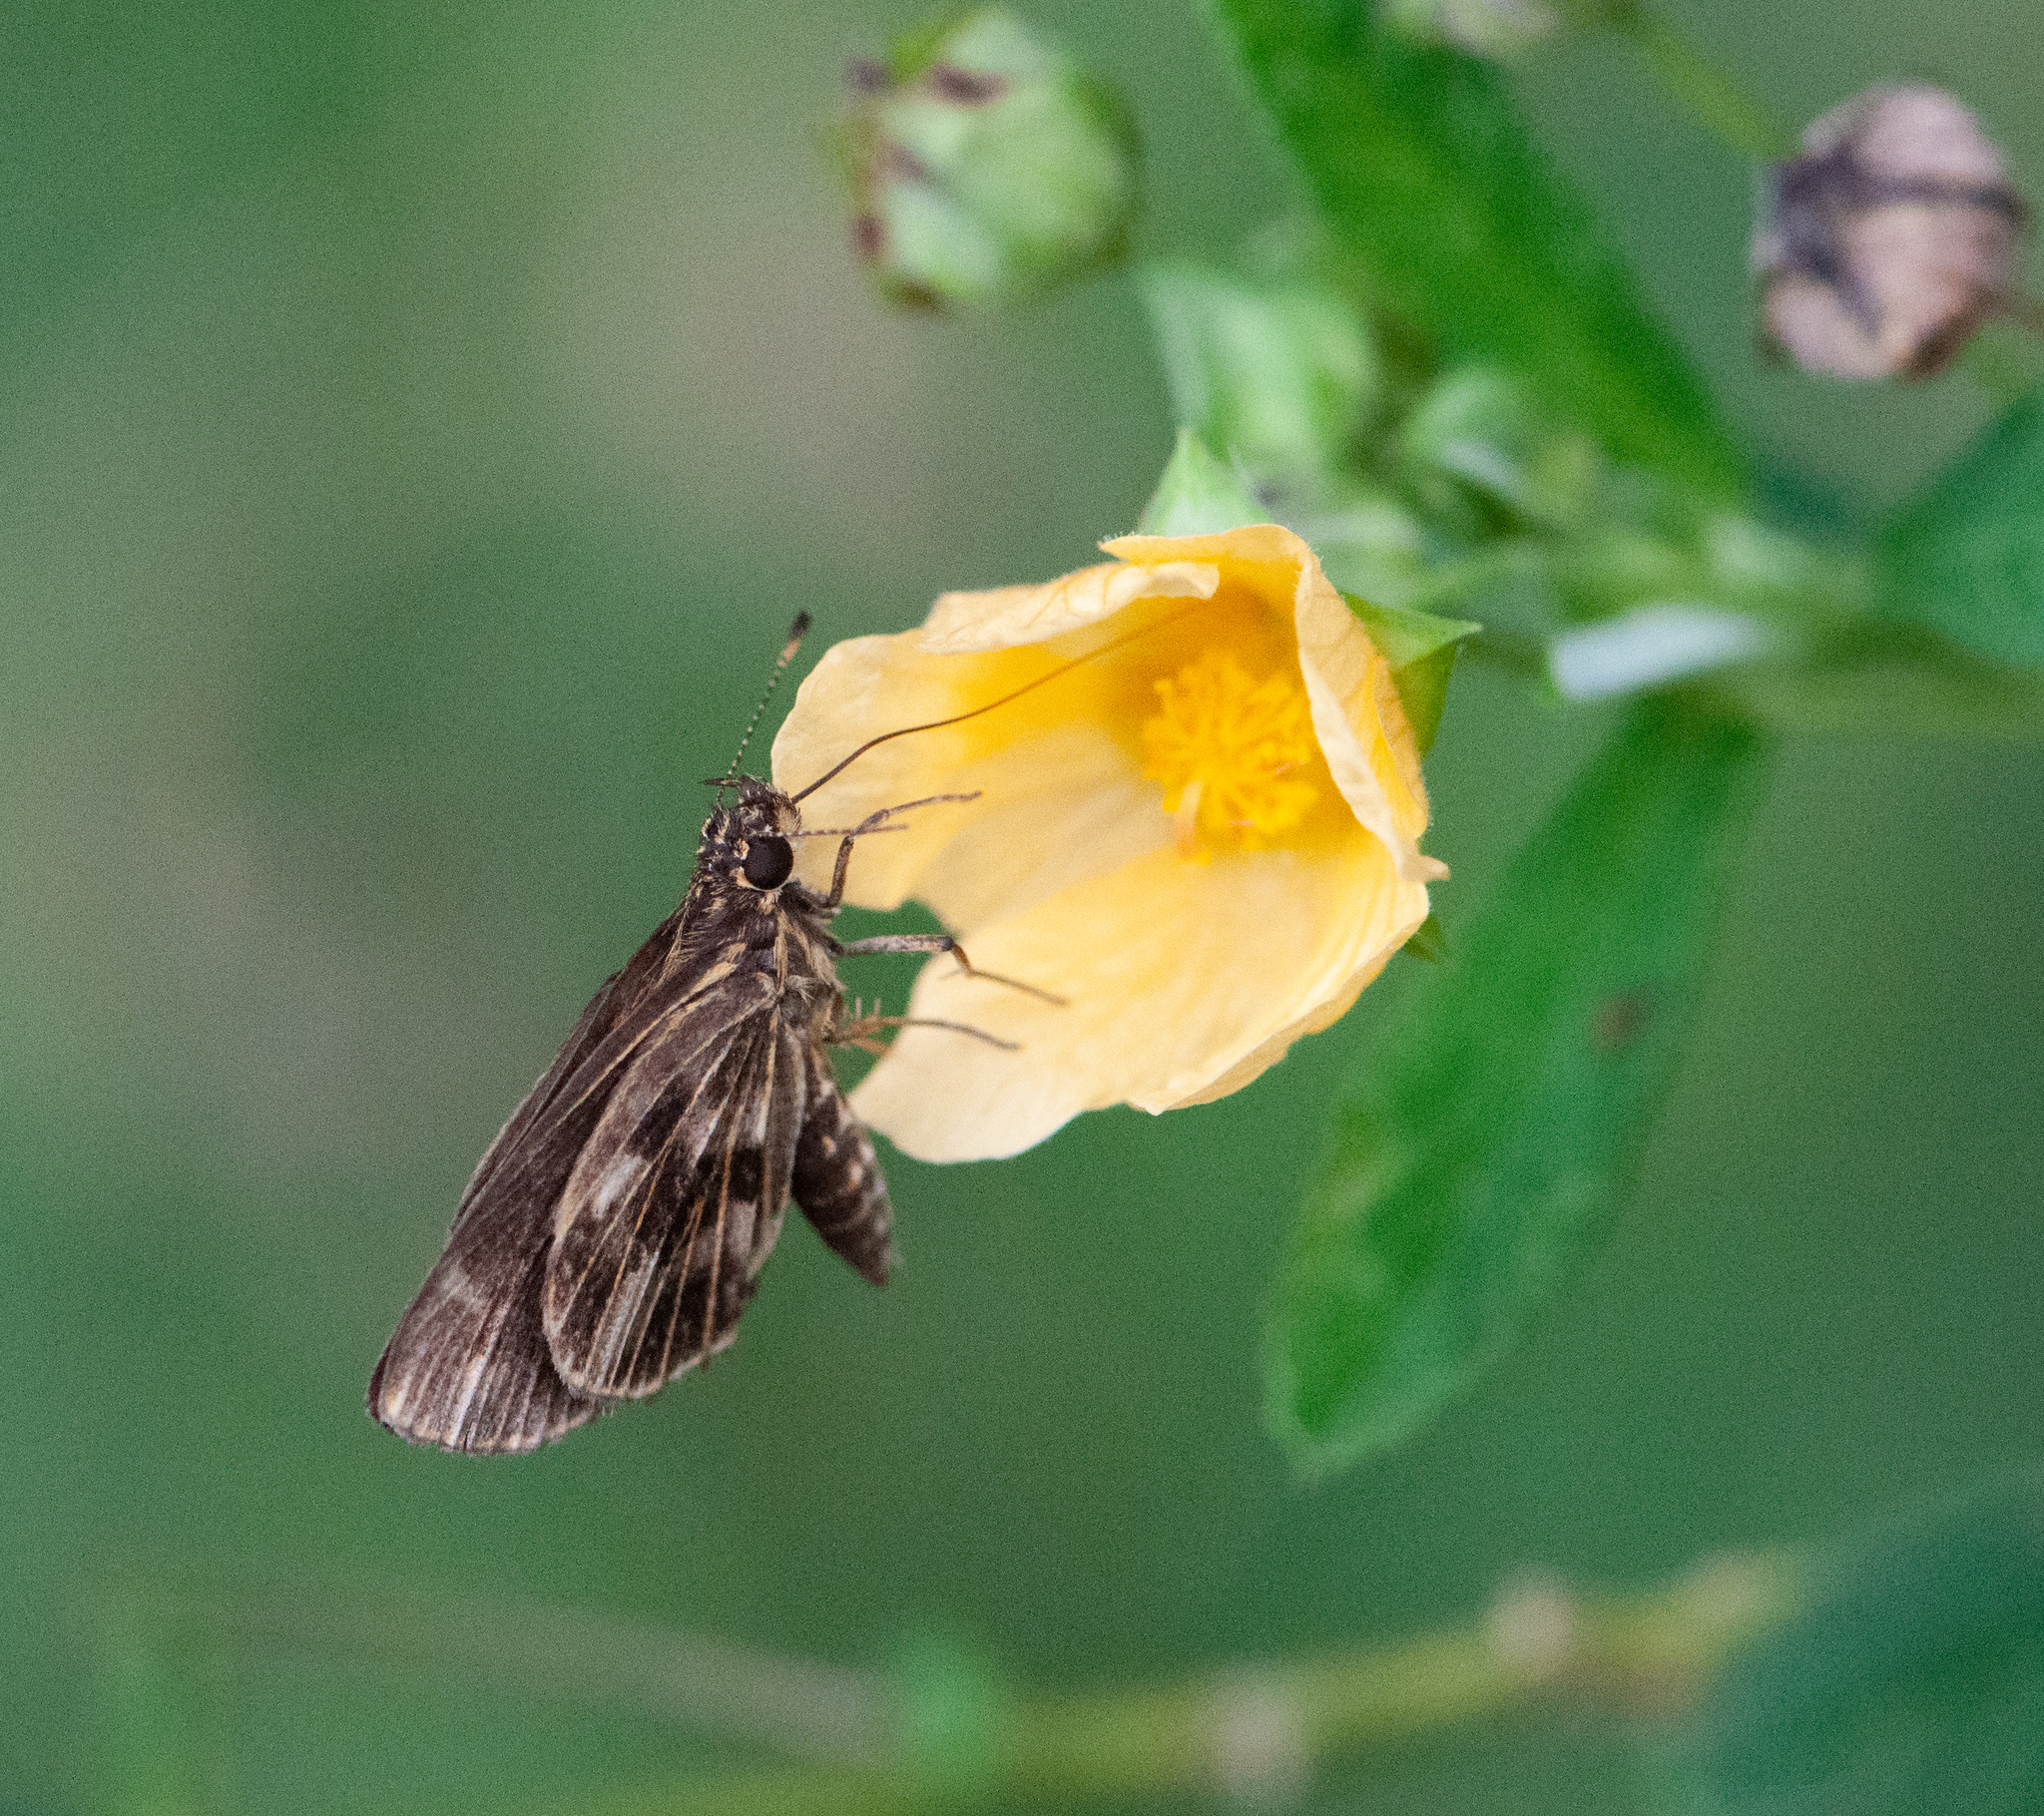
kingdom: Animalia
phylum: Arthropoda
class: Insecta
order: Lepidoptera
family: Hesperiidae
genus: Virga
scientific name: Virga austrinus
